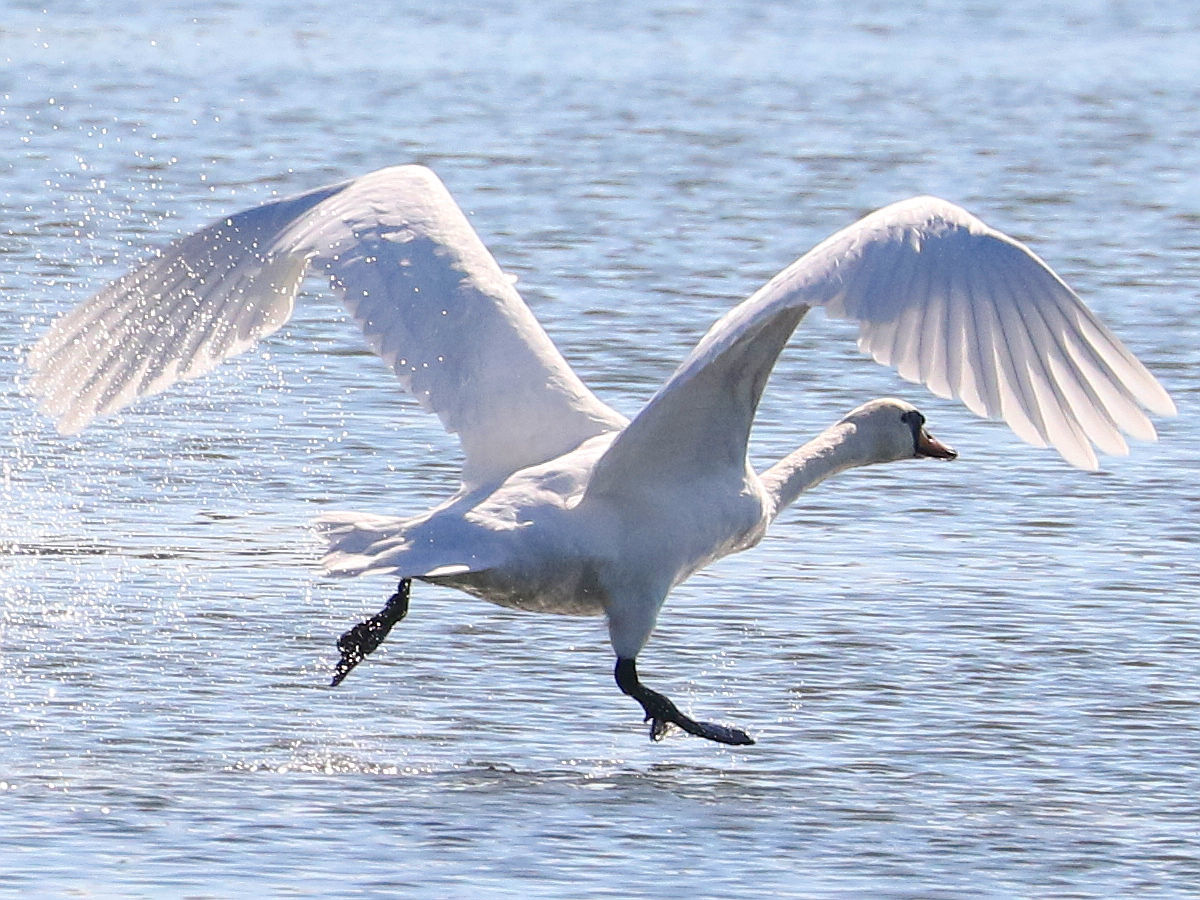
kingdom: Animalia
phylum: Chordata
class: Aves
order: Anseriformes
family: Anatidae
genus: Cygnus
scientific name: Cygnus olor
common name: Mute swan
